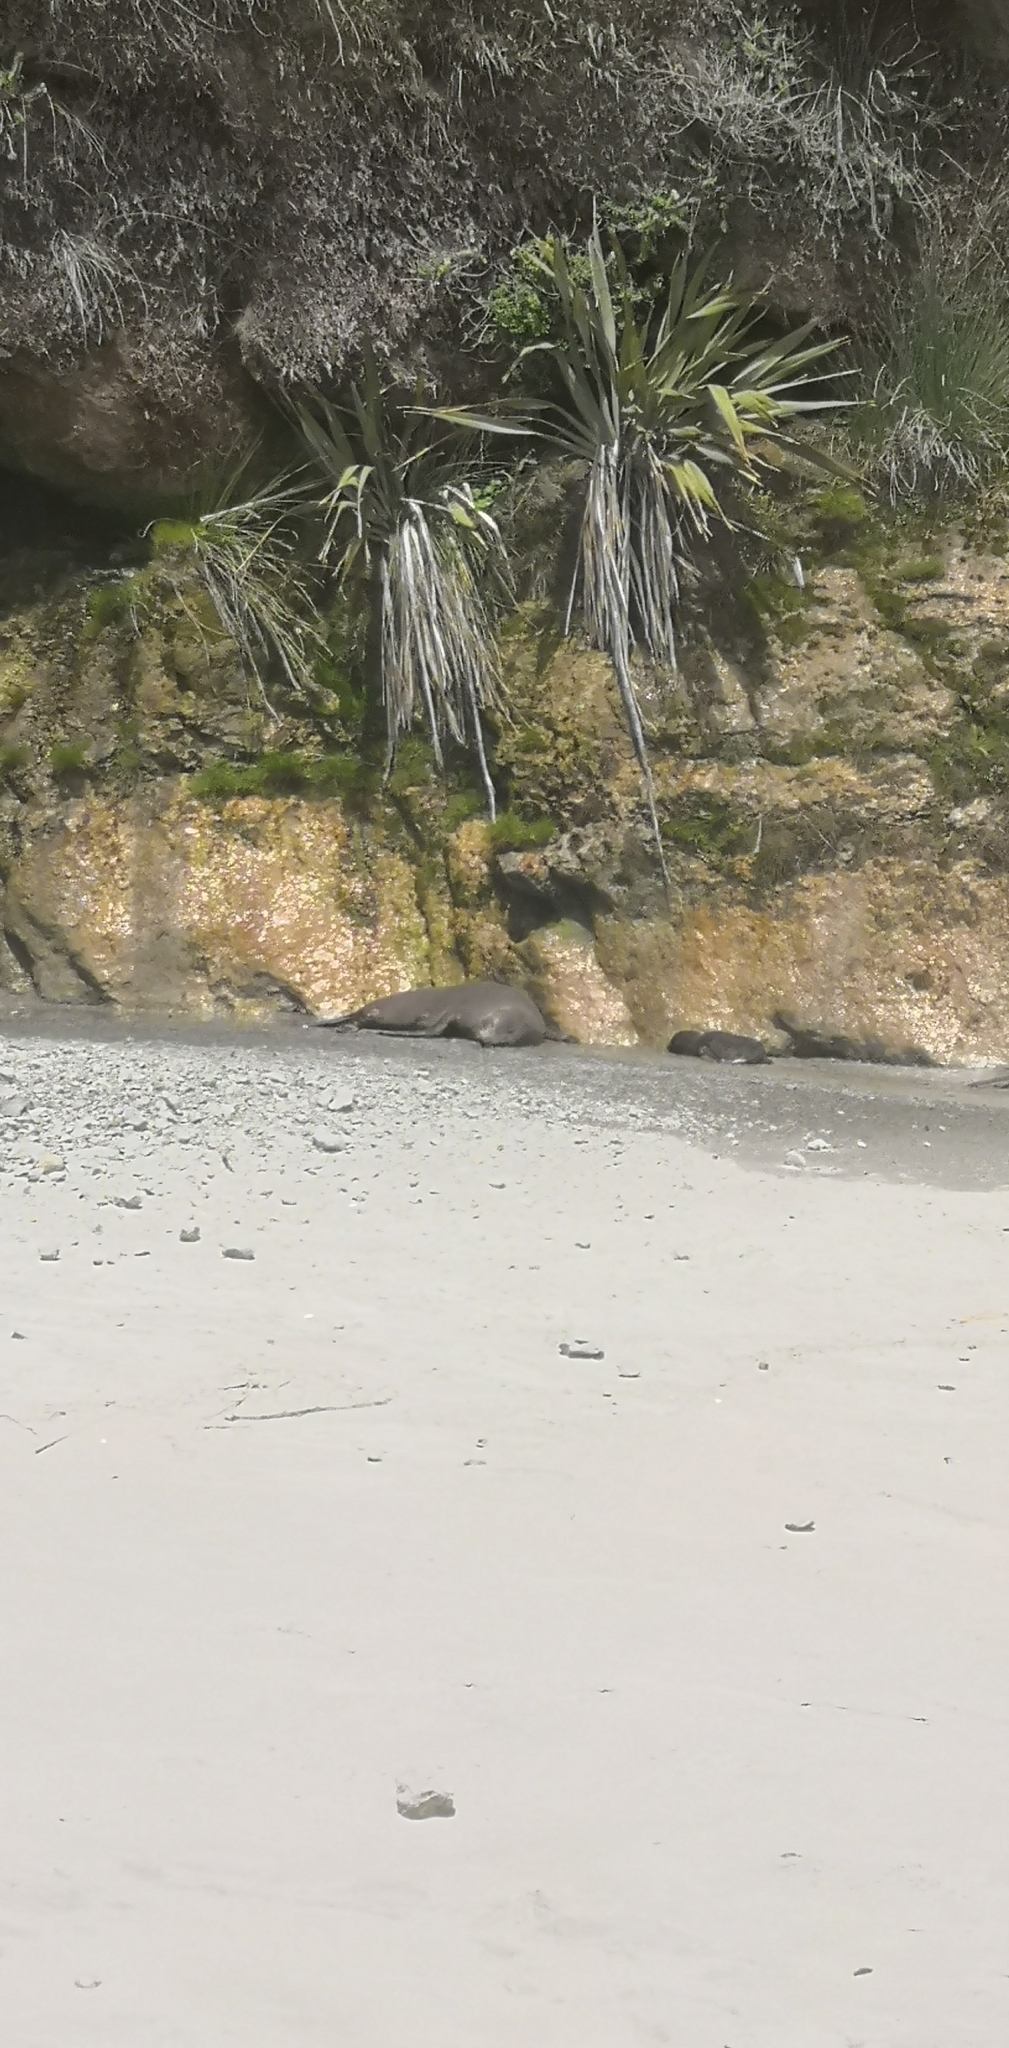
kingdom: Animalia
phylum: Chordata
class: Mammalia
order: Carnivora
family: Otariidae
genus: Arctocephalus
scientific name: Arctocephalus forsteri
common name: New zealand fur seal
